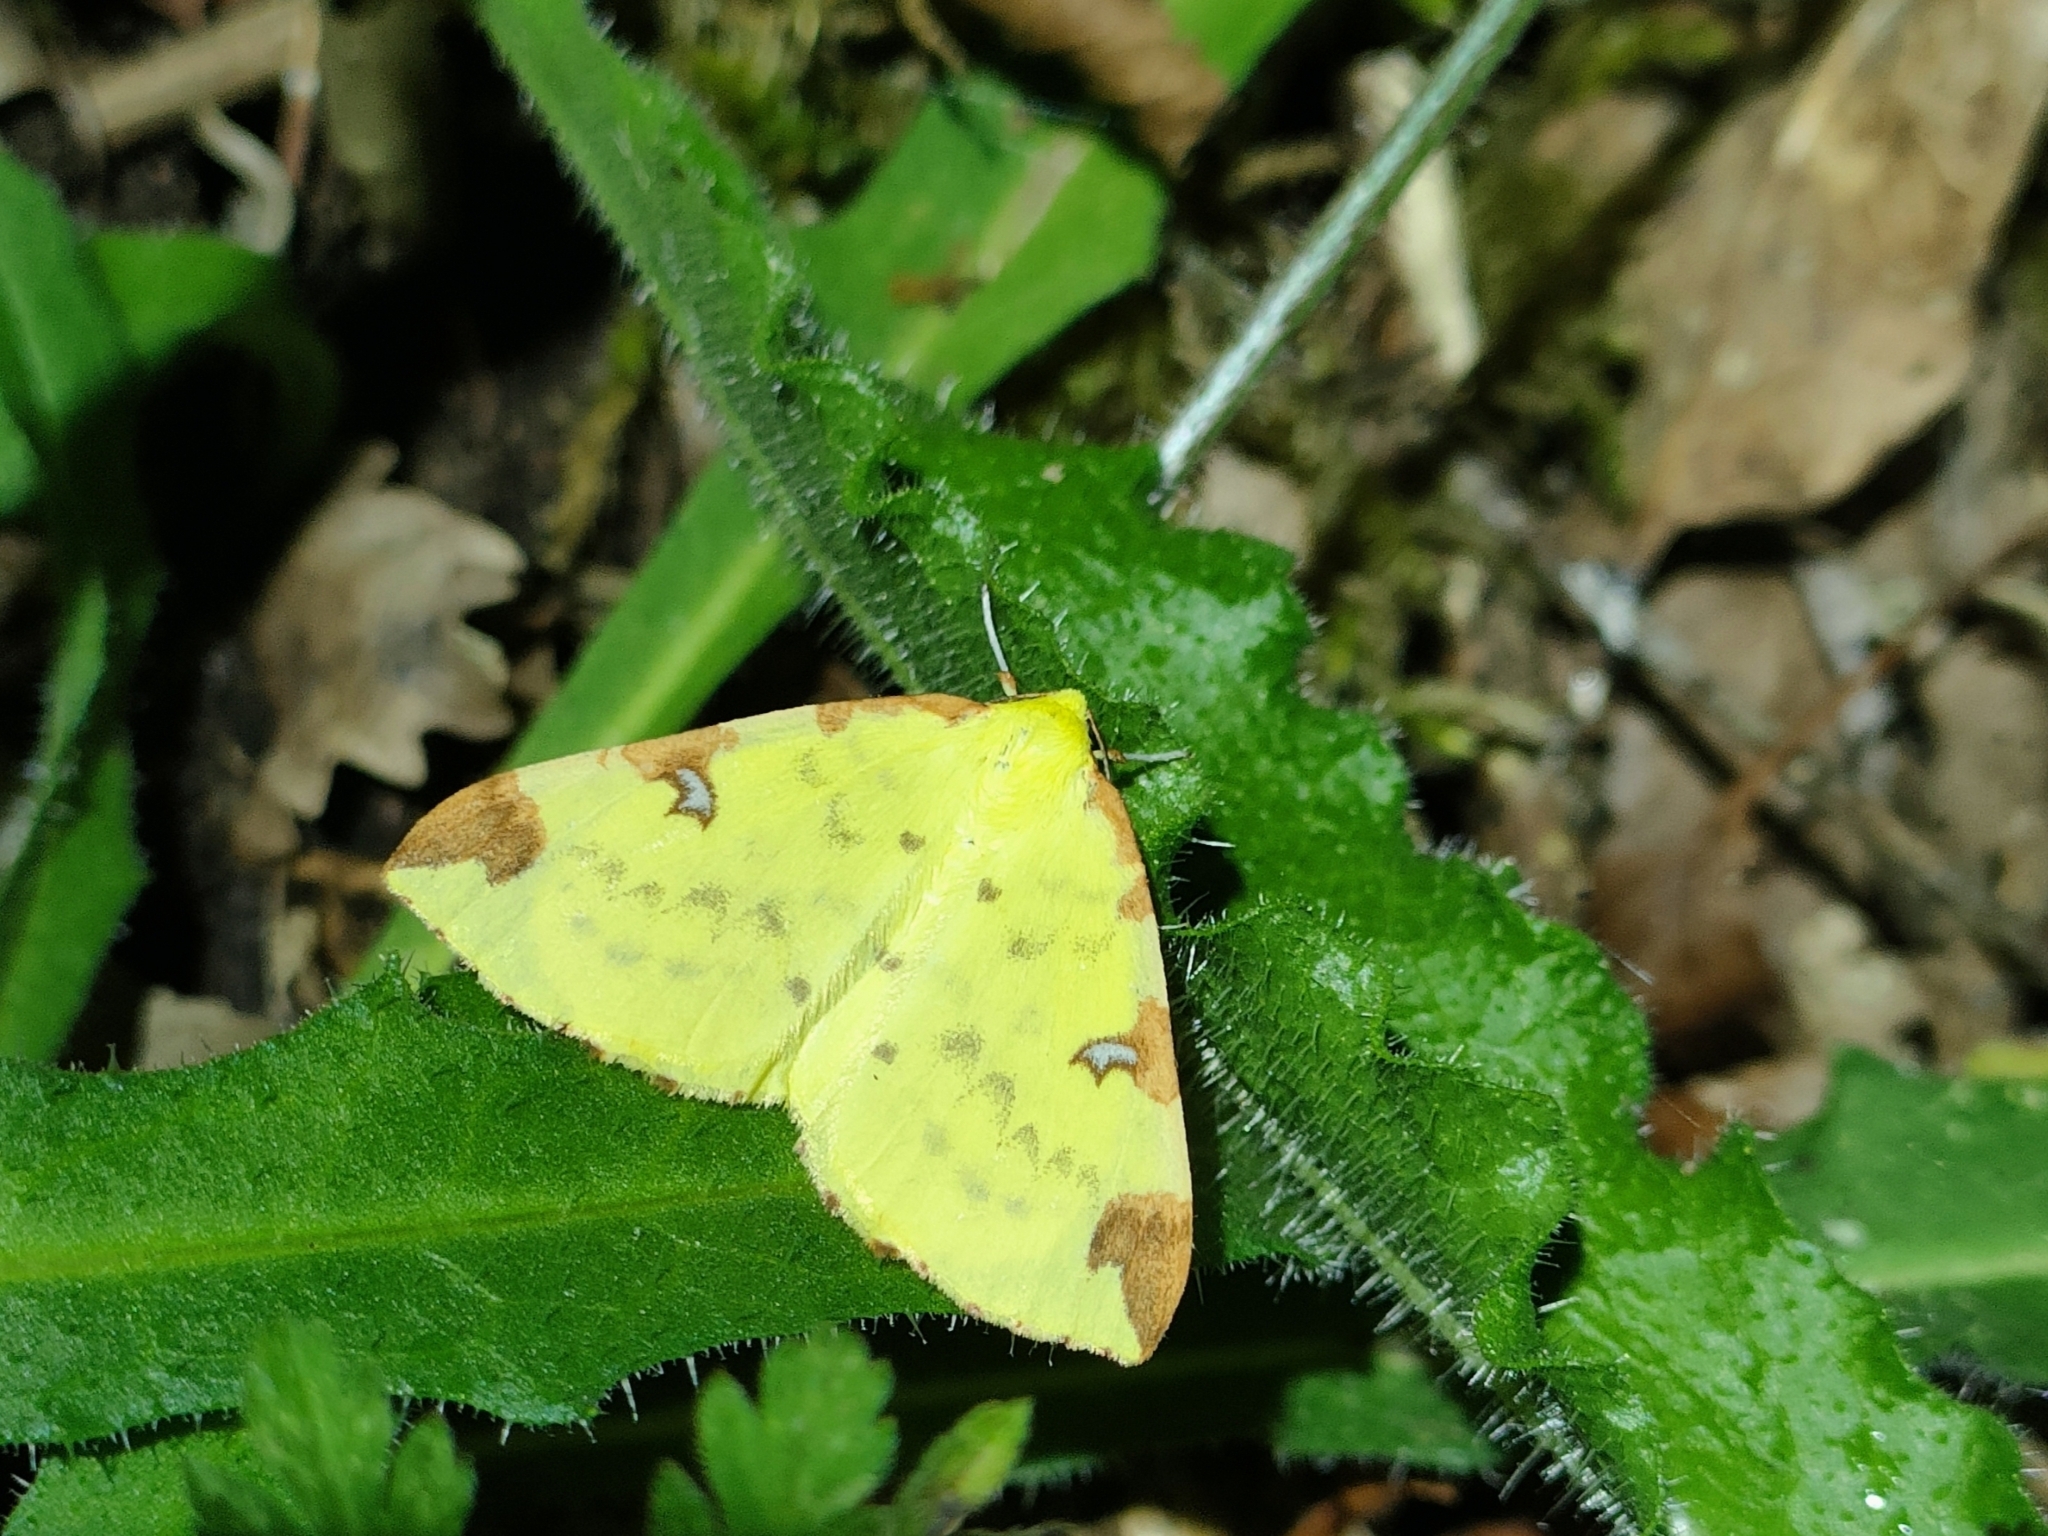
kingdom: Animalia
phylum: Arthropoda
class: Insecta
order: Lepidoptera
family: Geometridae
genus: Opisthograptis
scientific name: Opisthograptis luteolata
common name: Brimstone moth
